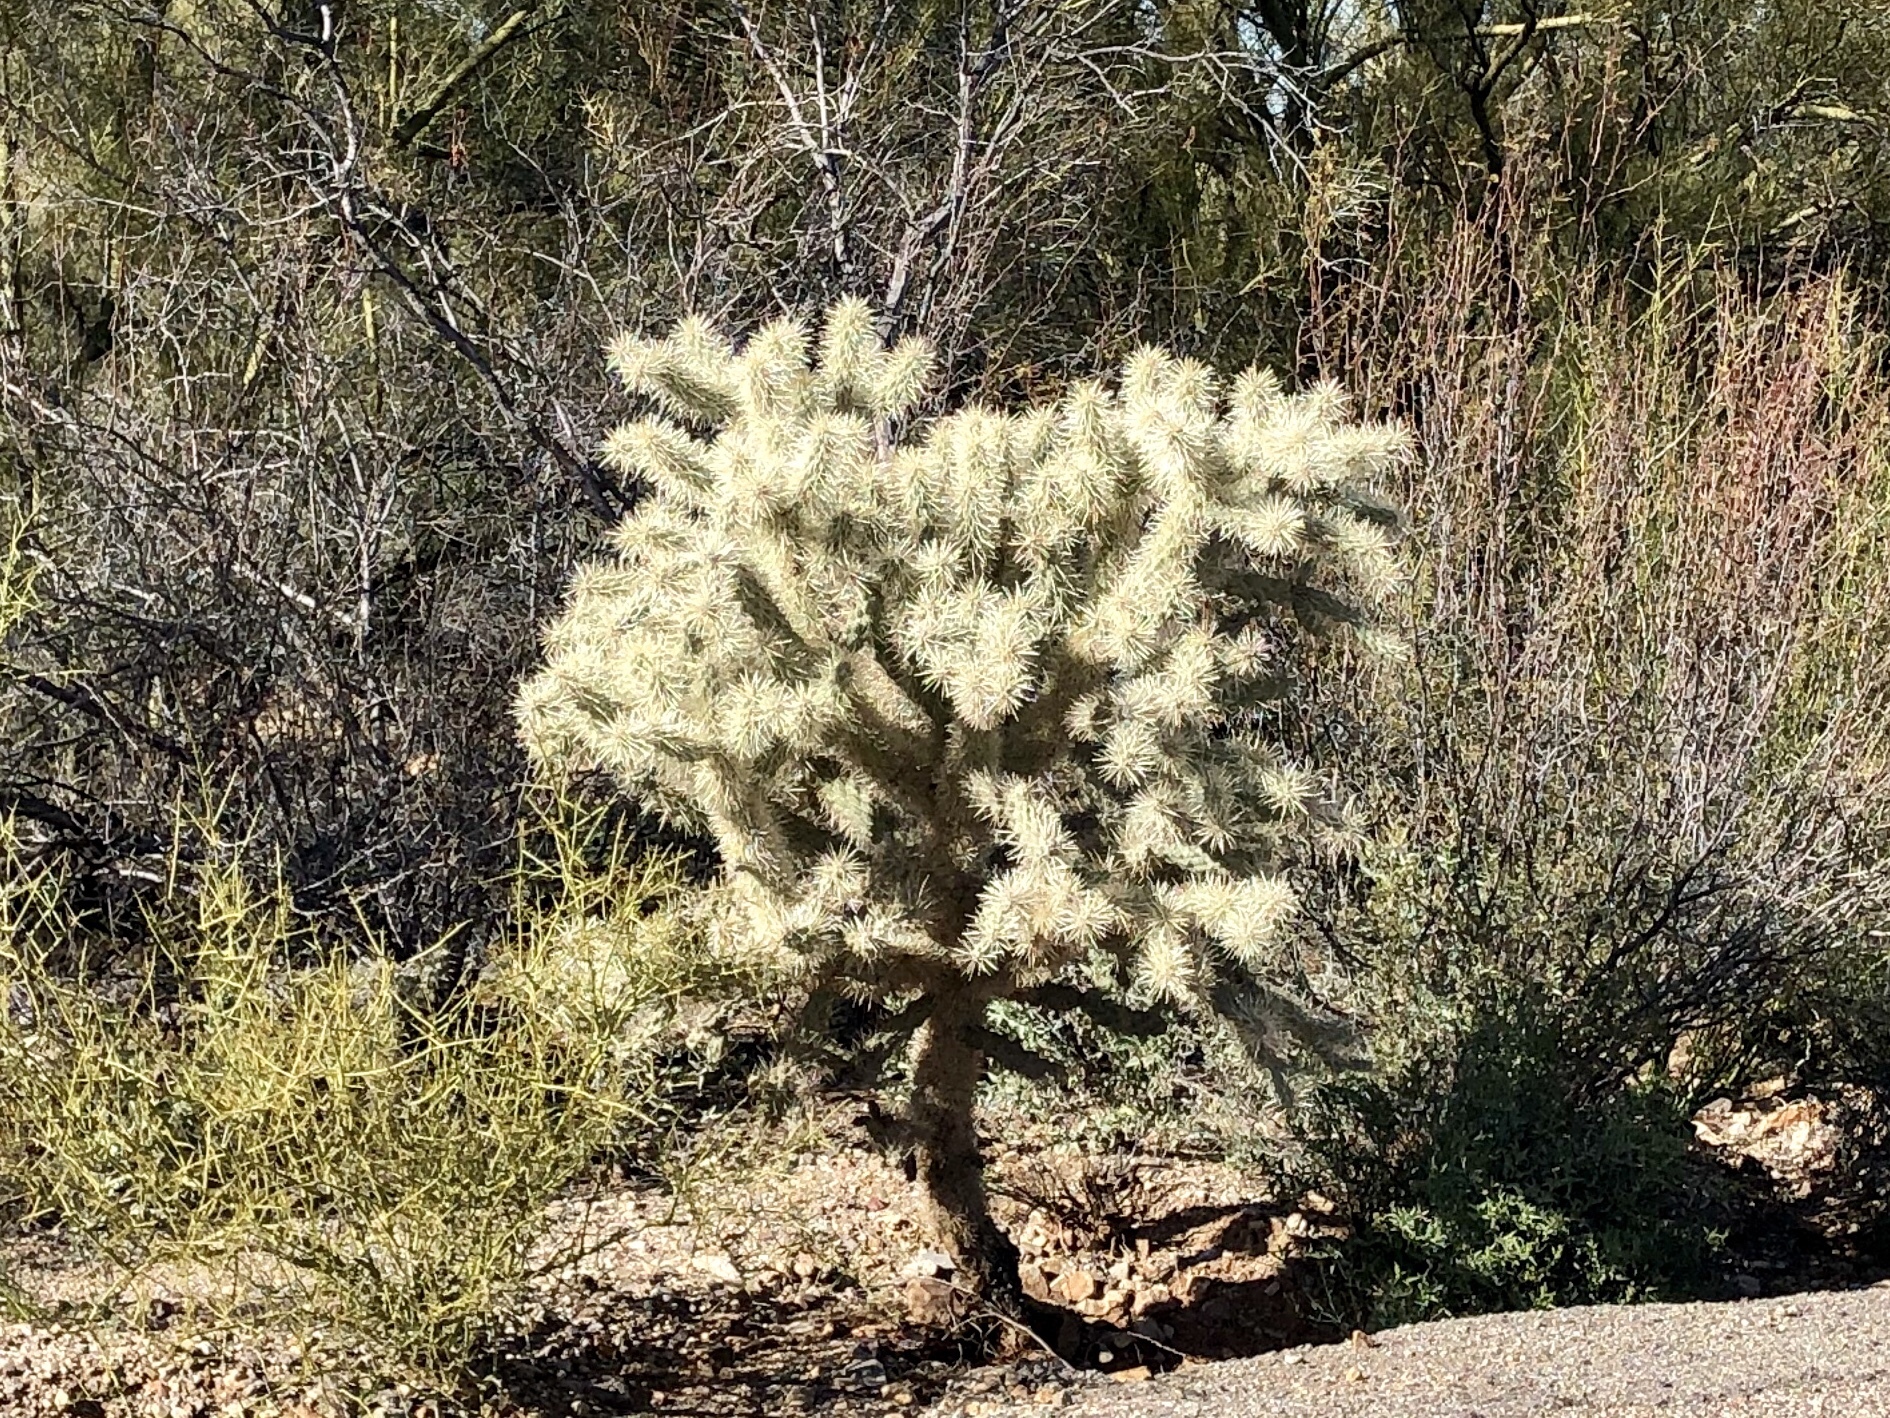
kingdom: Plantae
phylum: Tracheophyta
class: Magnoliopsida
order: Caryophyllales
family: Cactaceae
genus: Cylindropuntia
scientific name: Cylindropuntia fulgida
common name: Jumping cholla
